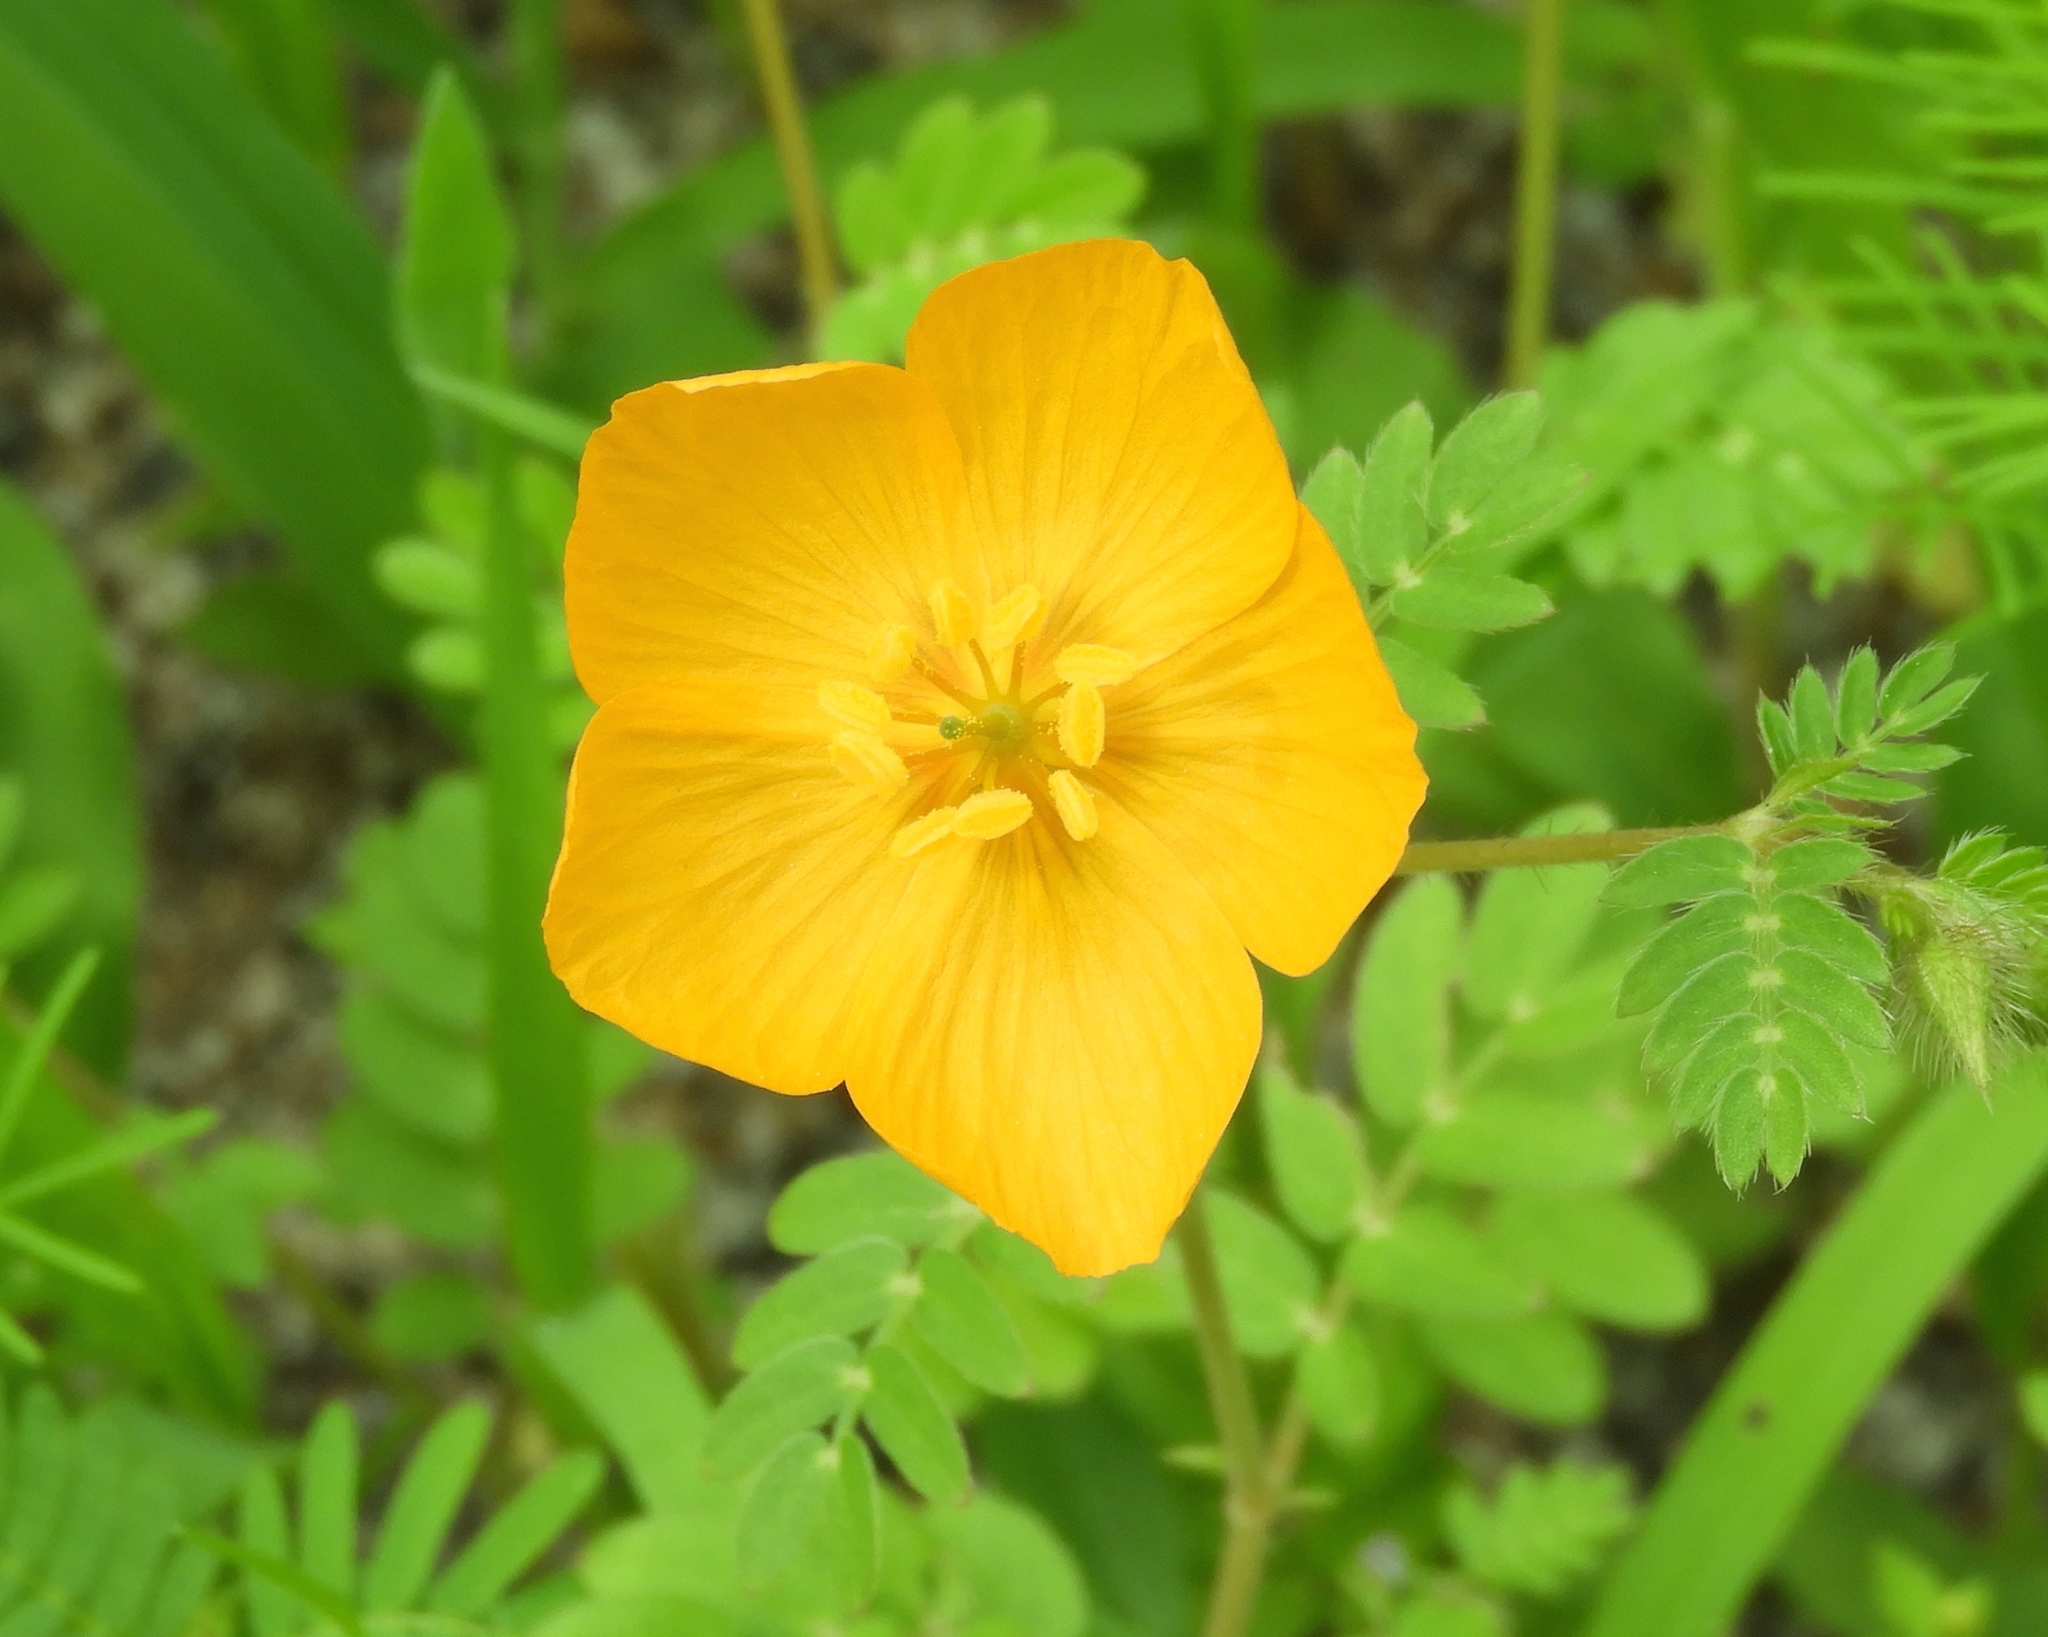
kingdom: Plantae
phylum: Tracheophyta
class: Magnoliopsida
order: Zygophyllales
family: Zygophyllaceae
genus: Kallstroemia
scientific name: Kallstroemia grandiflora
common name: Arizona-poppy
